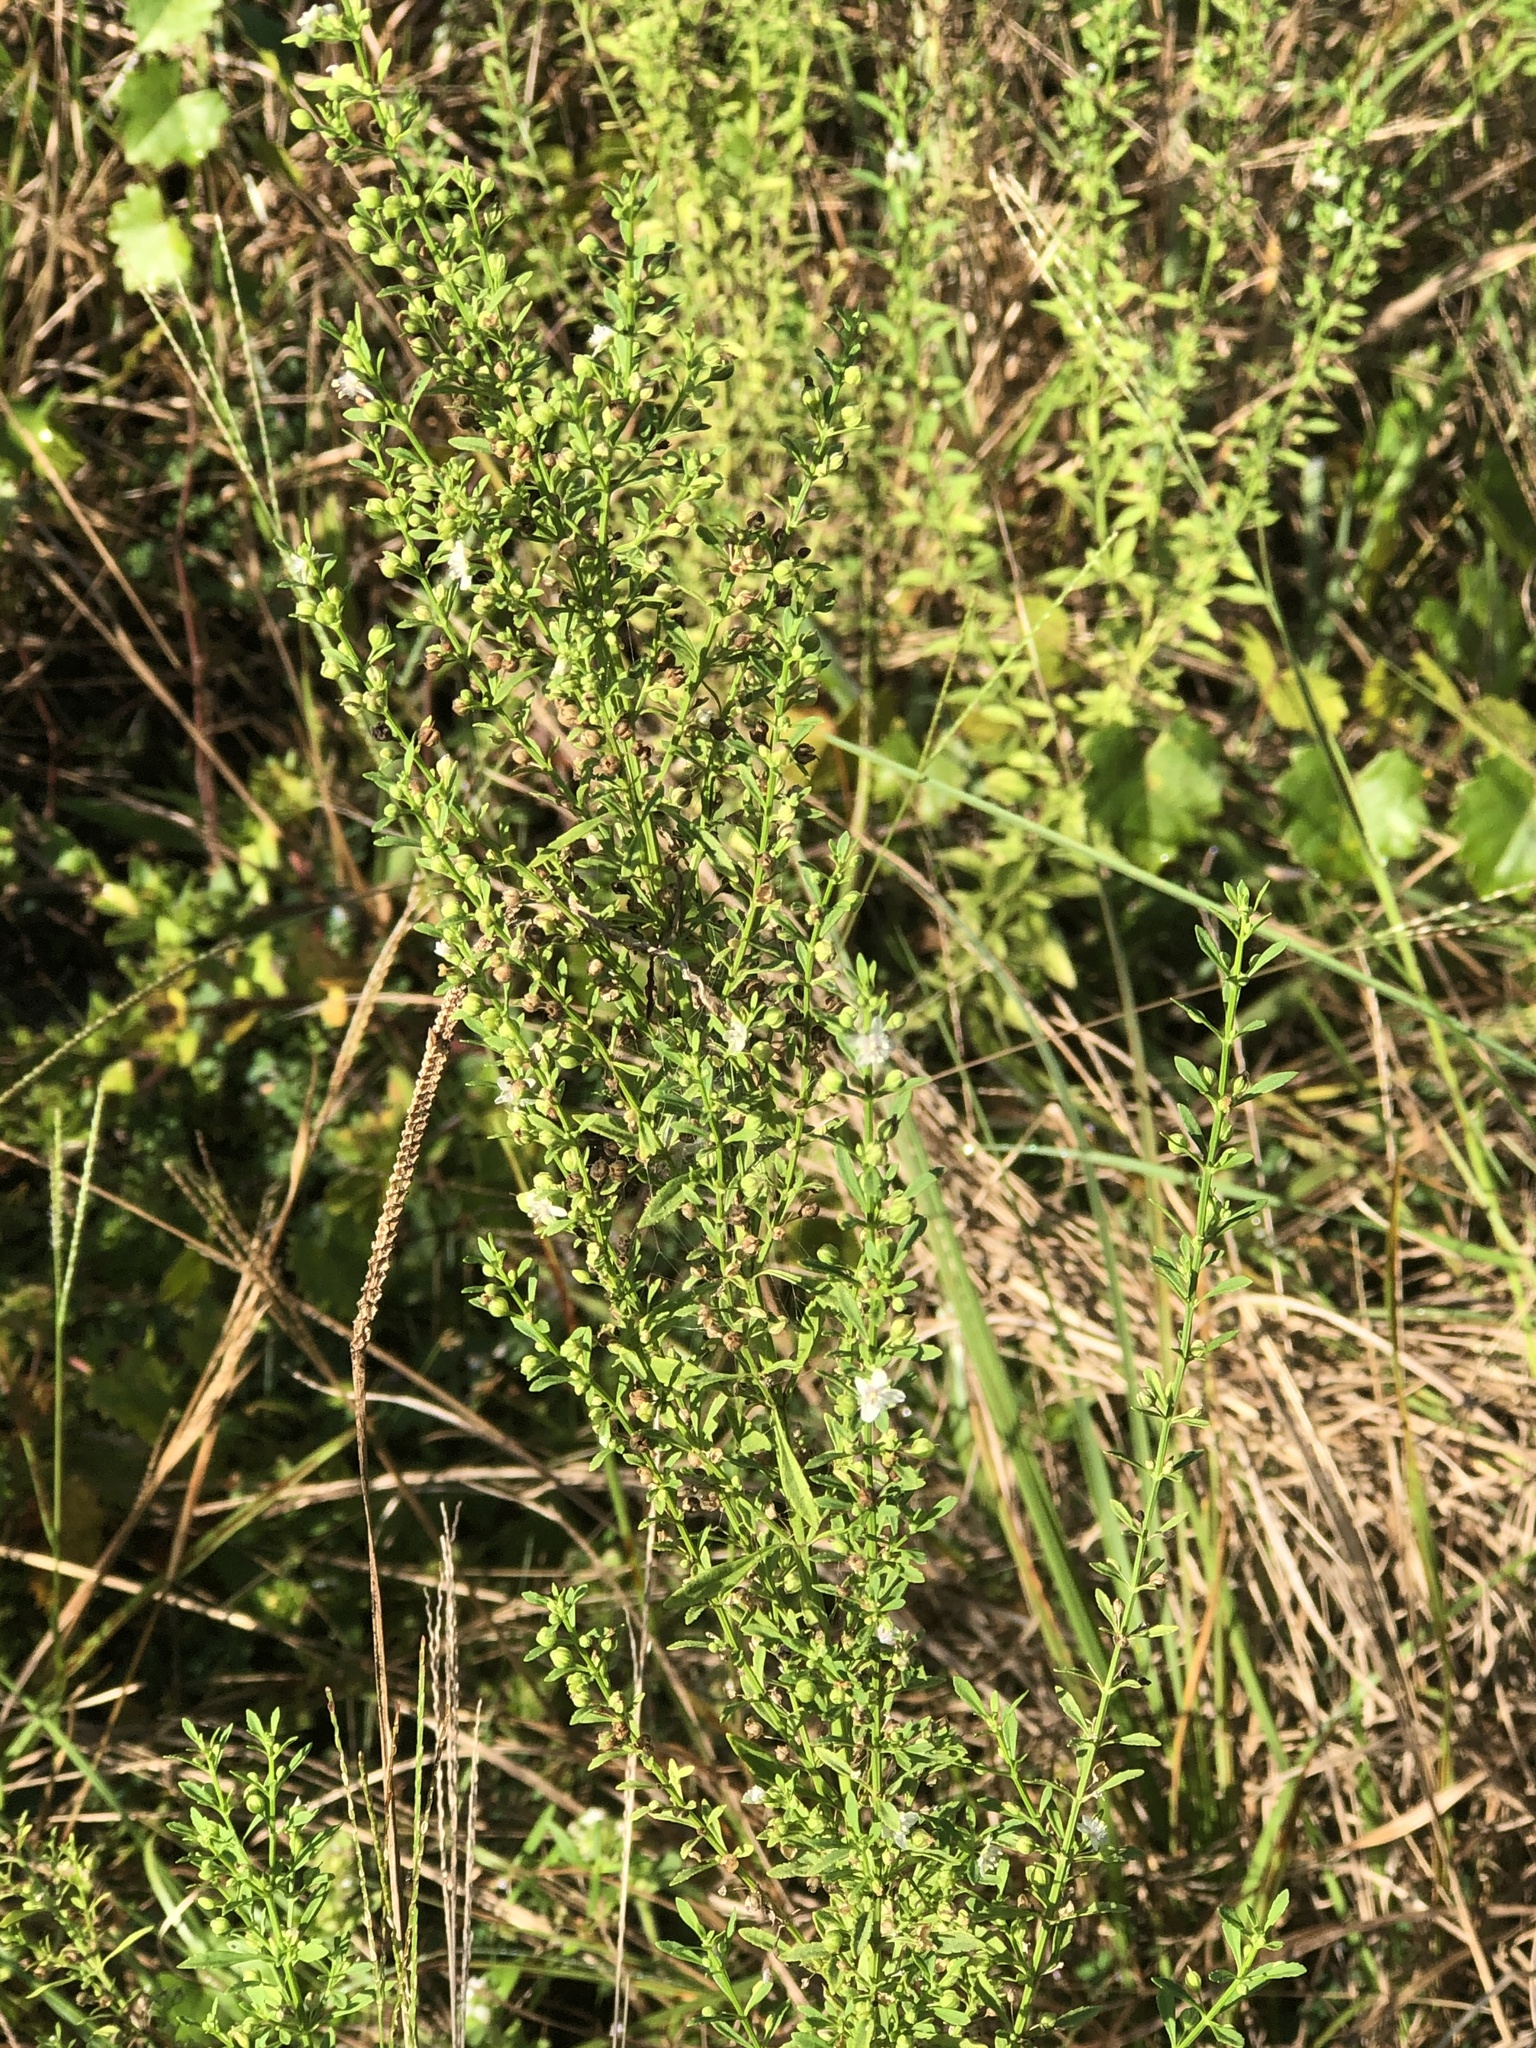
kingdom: Plantae
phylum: Tracheophyta
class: Magnoliopsida
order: Lamiales
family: Plantaginaceae
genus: Scoparia
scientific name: Scoparia dulcis
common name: Scoparia-weed
